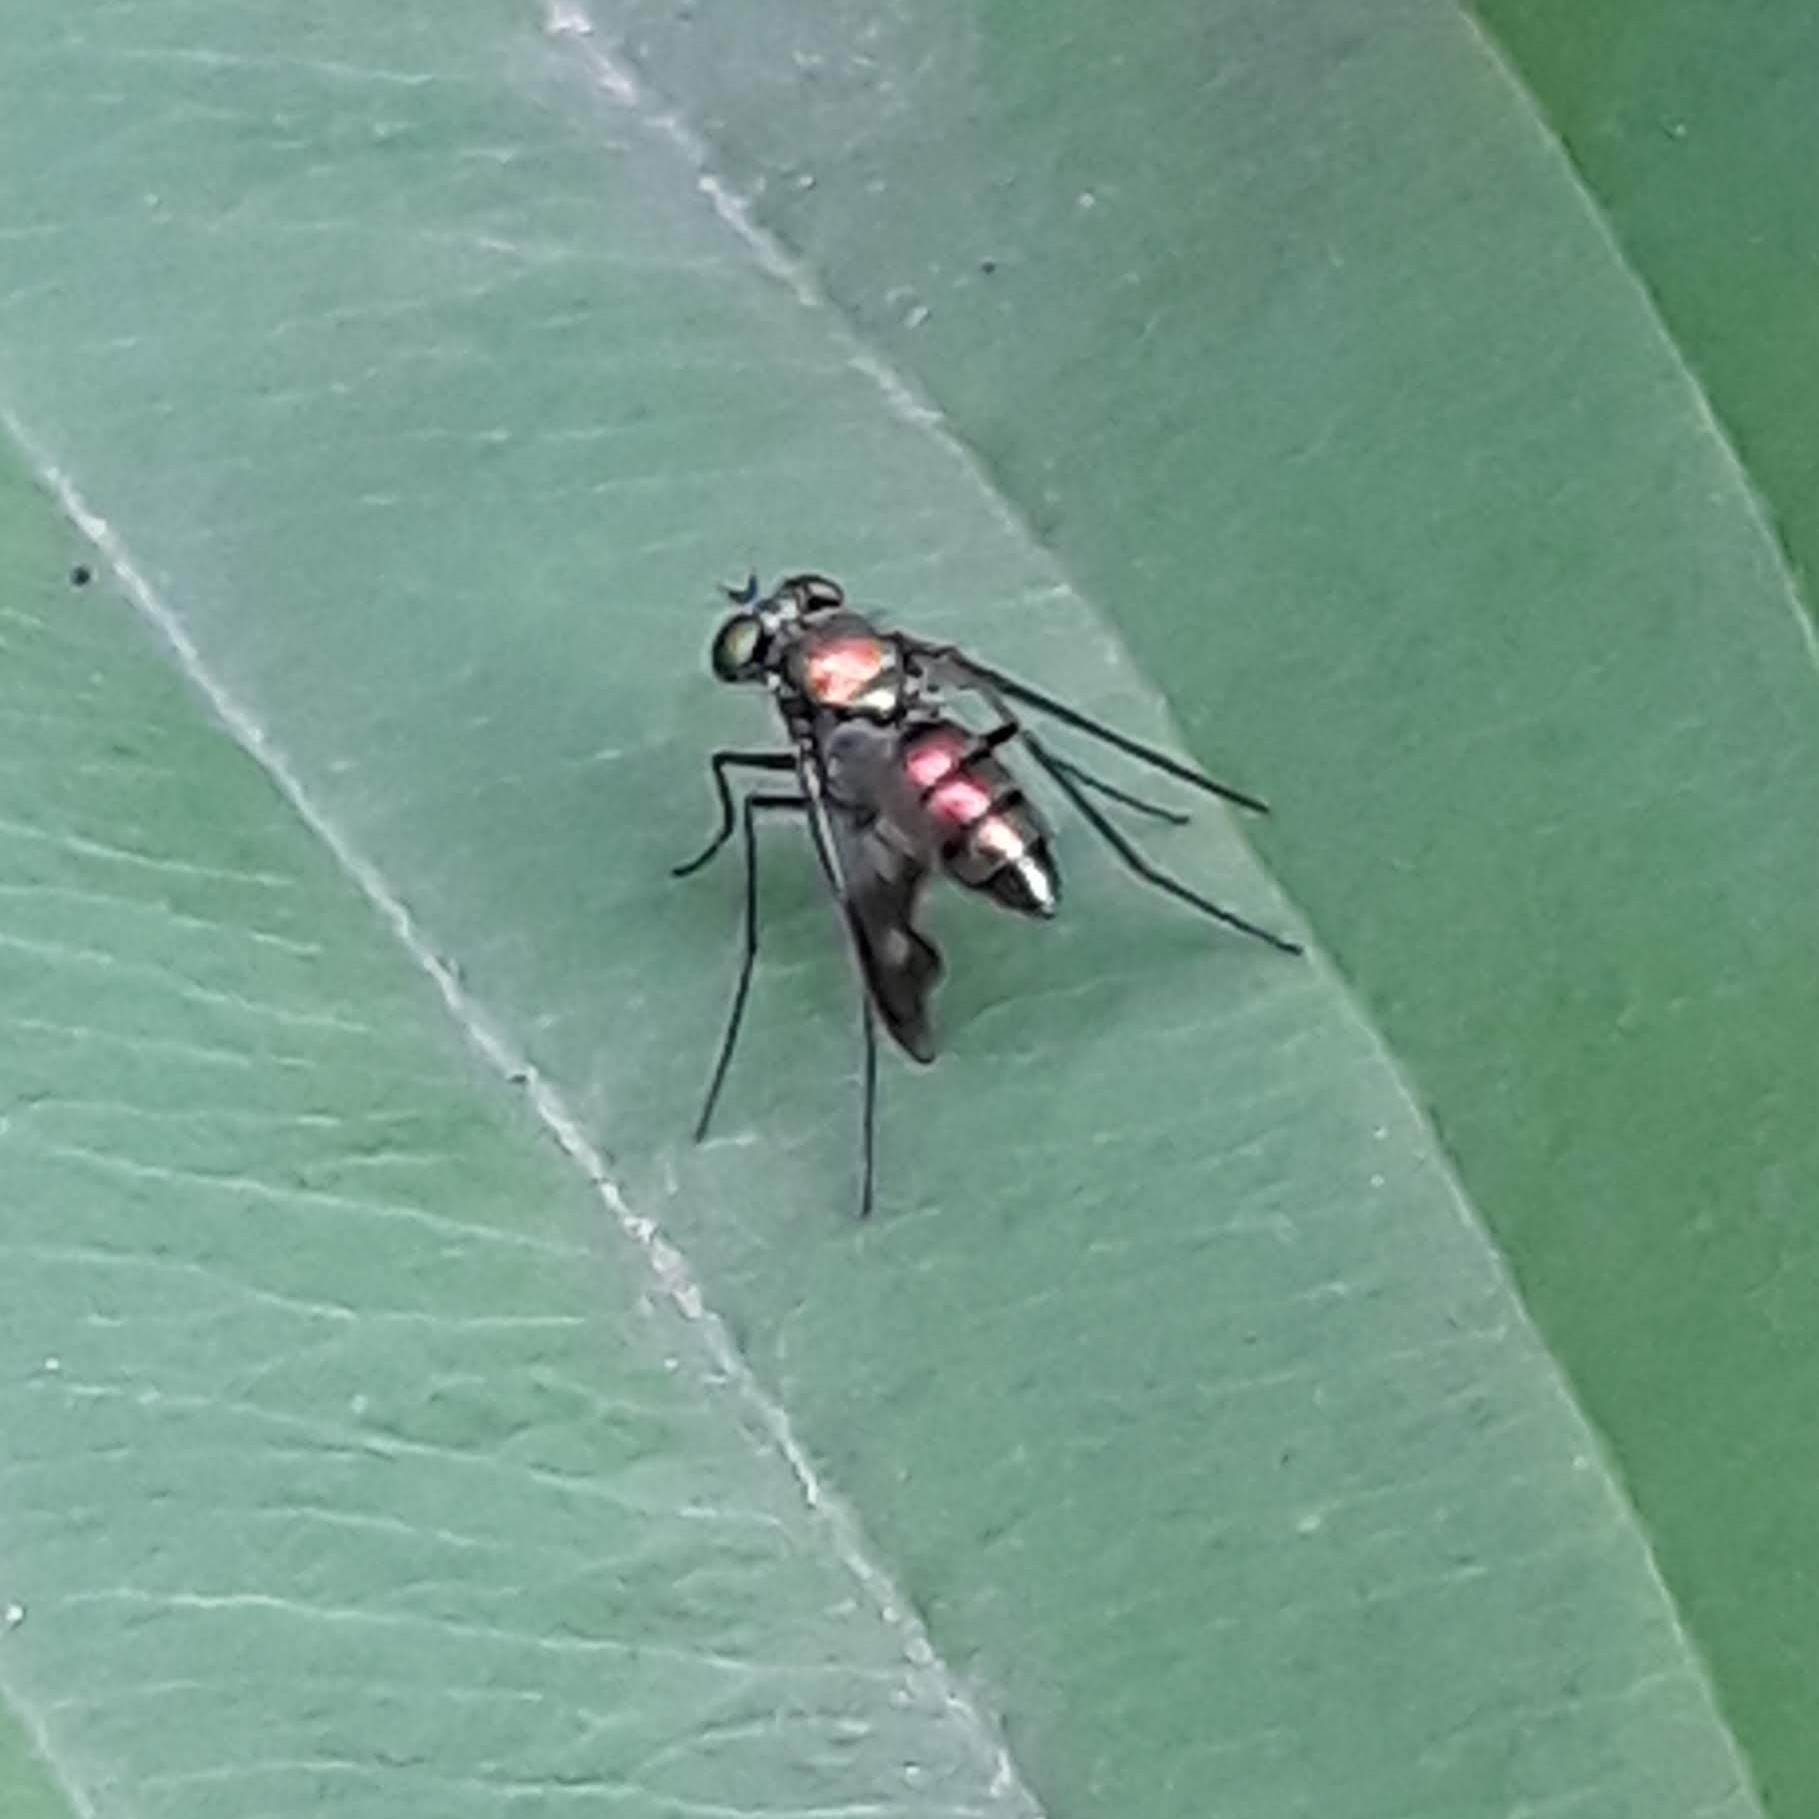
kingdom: Animalia
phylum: Arthropoda
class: Insecta
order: Diptera
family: Dolichopodidae
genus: Condylostylus
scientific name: Condylostylus patibulatus
